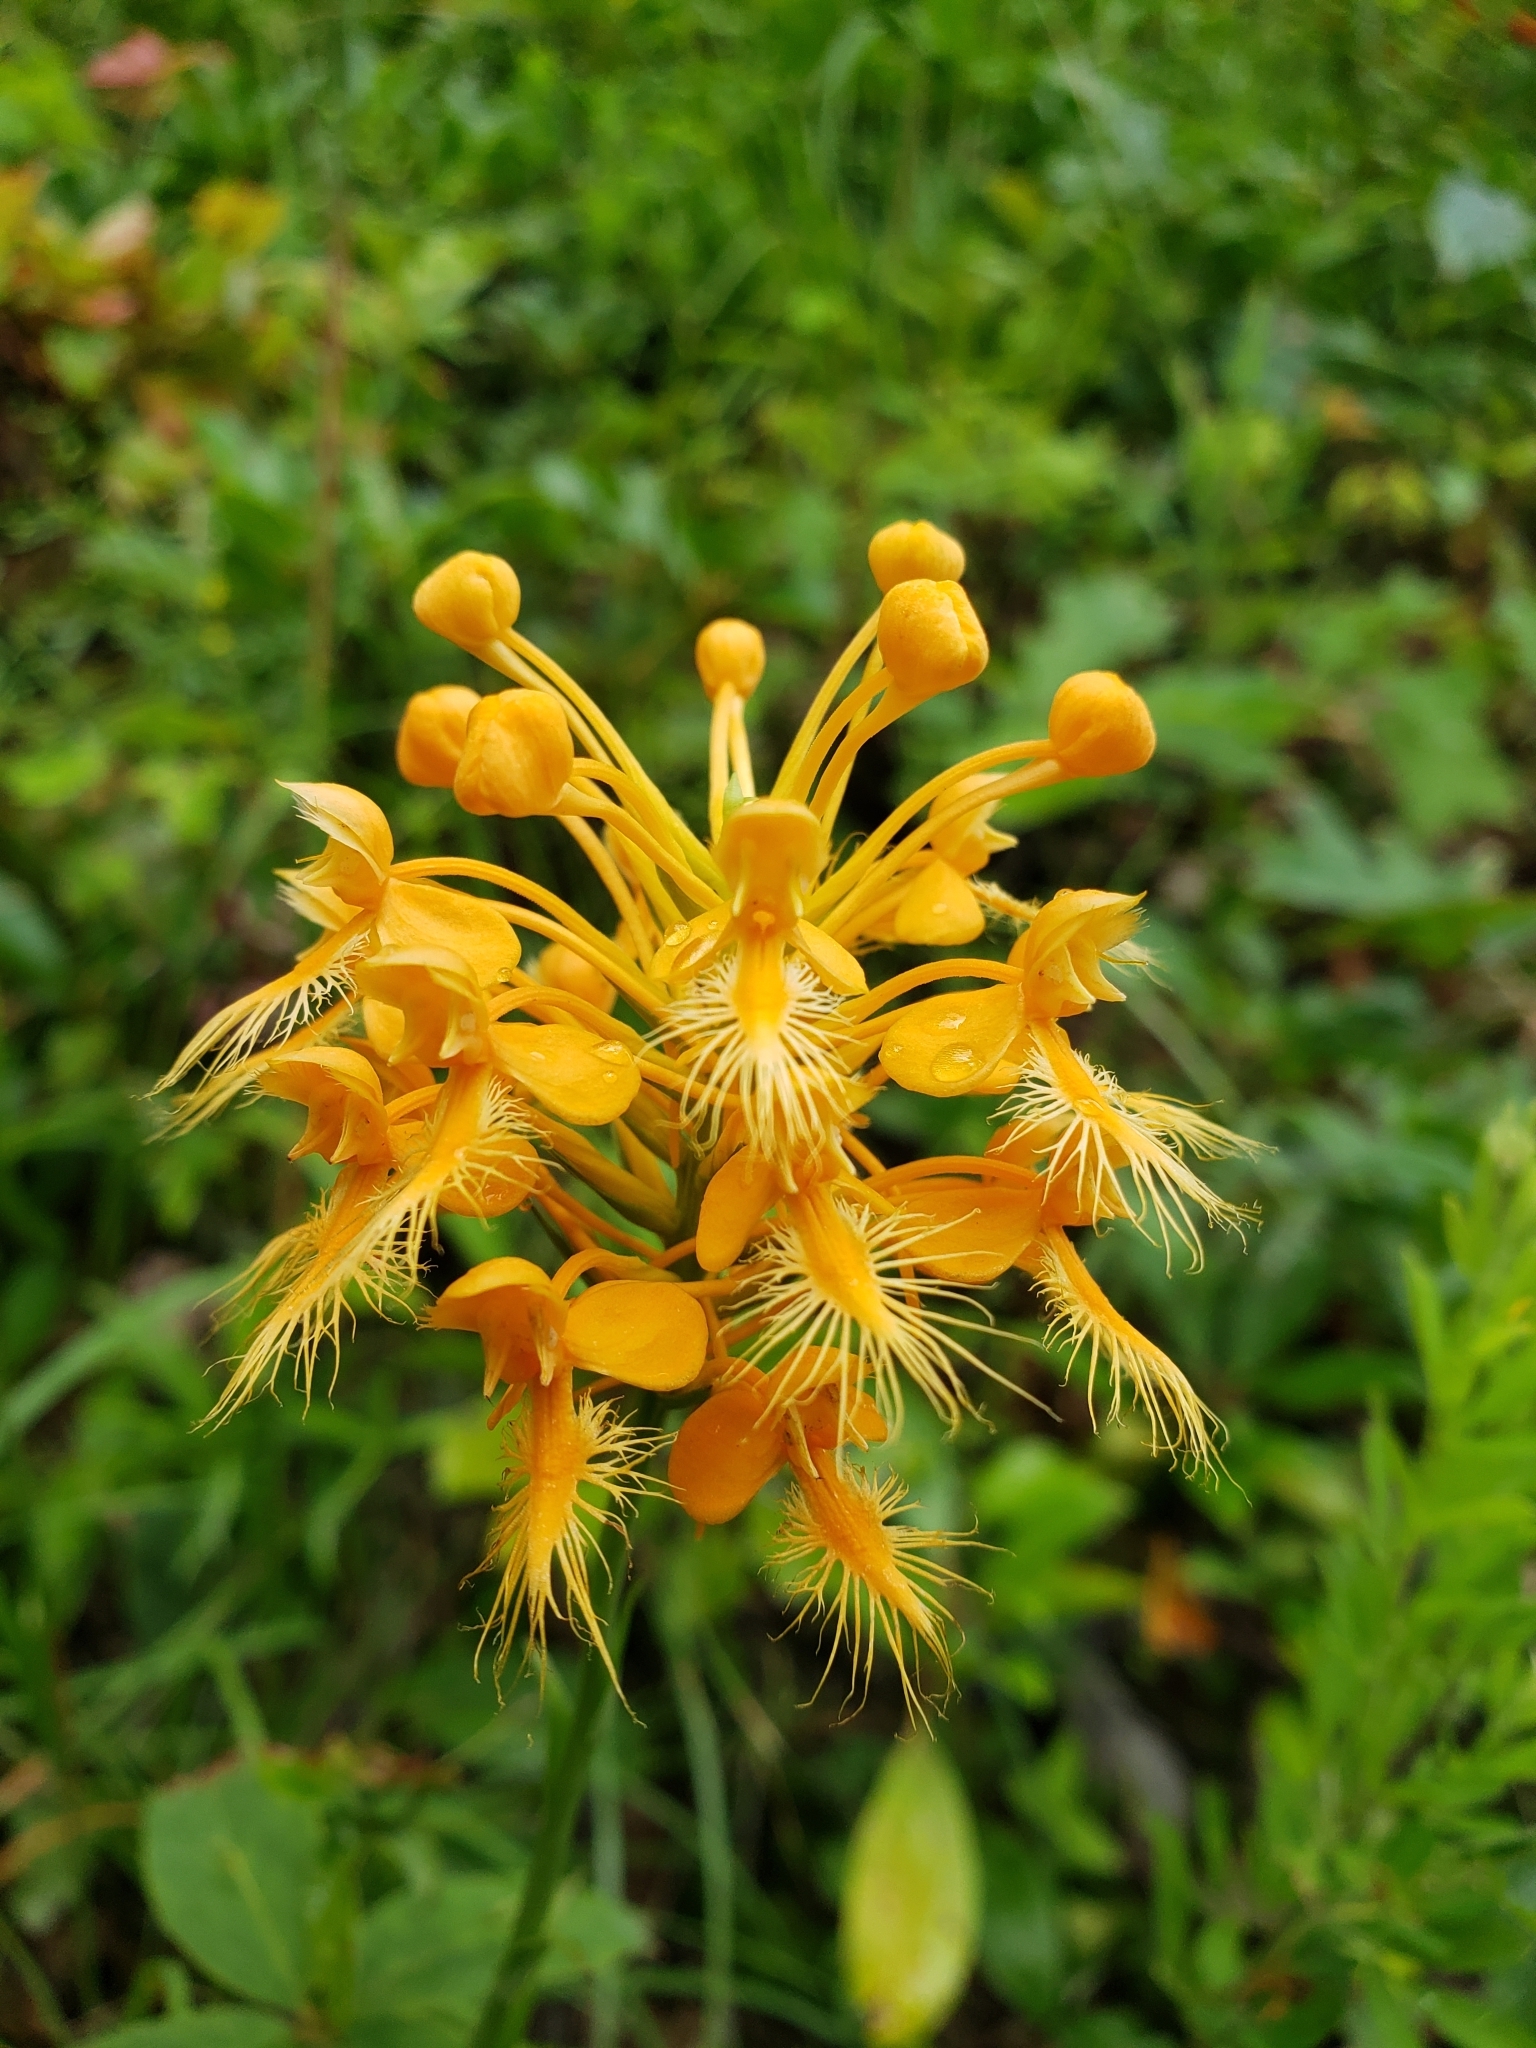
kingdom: Plantae
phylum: Tracheophyta
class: Liliopsida
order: Asparagales
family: Orchidaceae
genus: Platanthera
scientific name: Platanthera ciliaris
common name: Yellow fringed orchid
